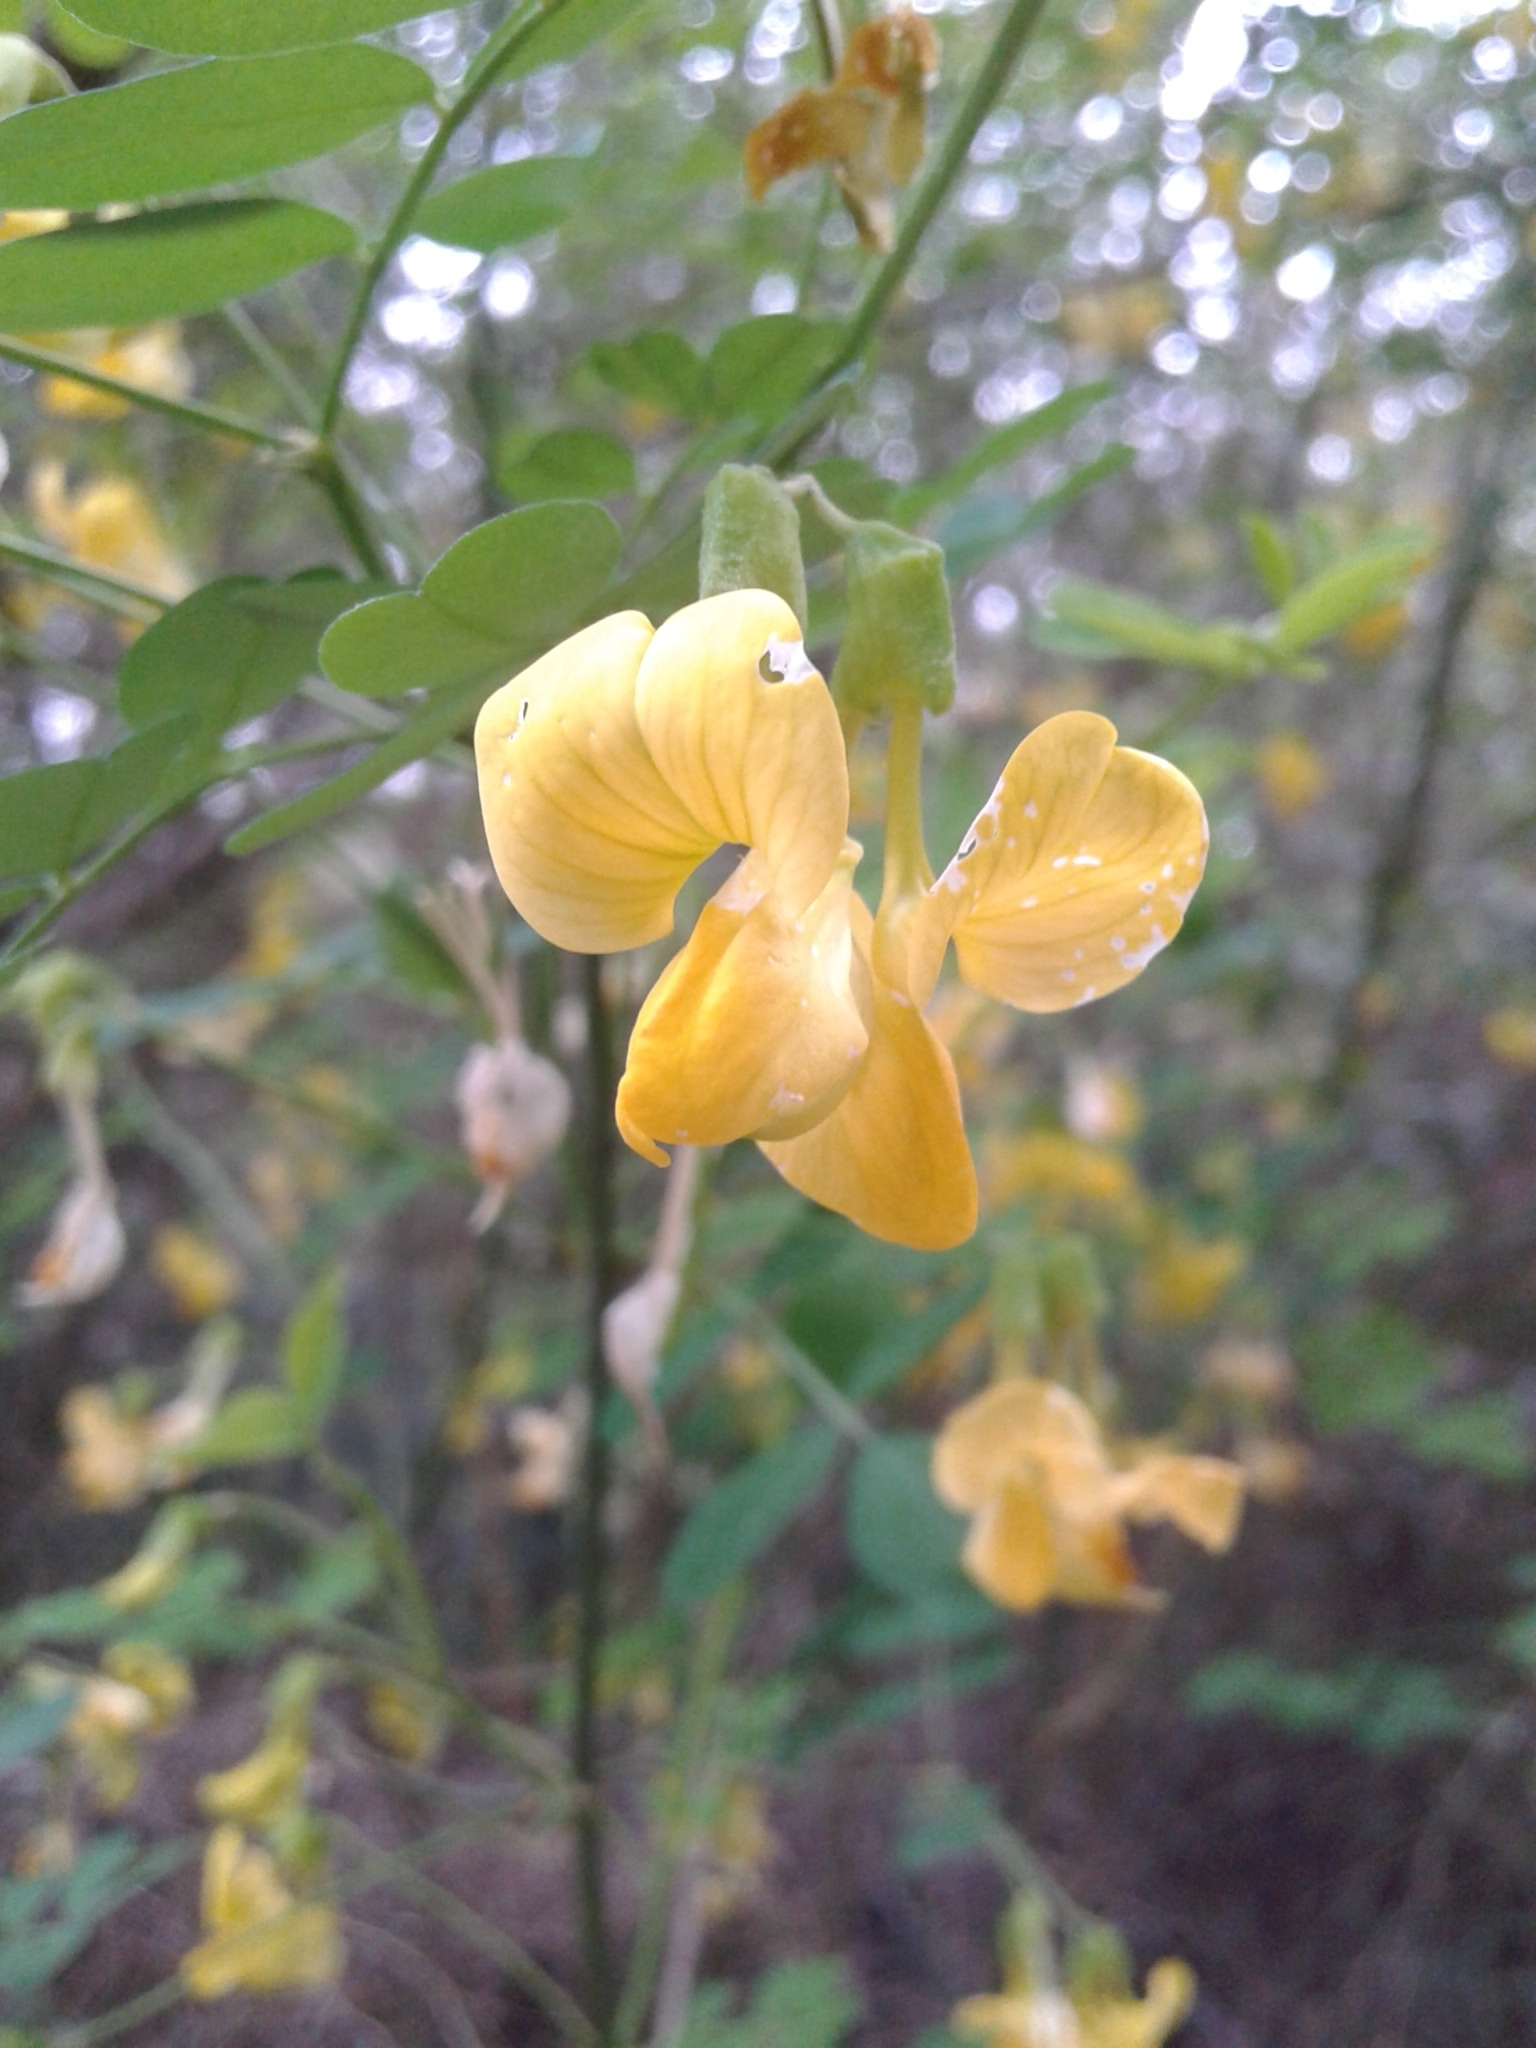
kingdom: Plantae
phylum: Tracheophyta
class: Magnoliopsida
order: Fabales
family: Fabaceae
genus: Hippocrepis
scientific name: Hippocrepis emerus
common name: Scorpion senna
